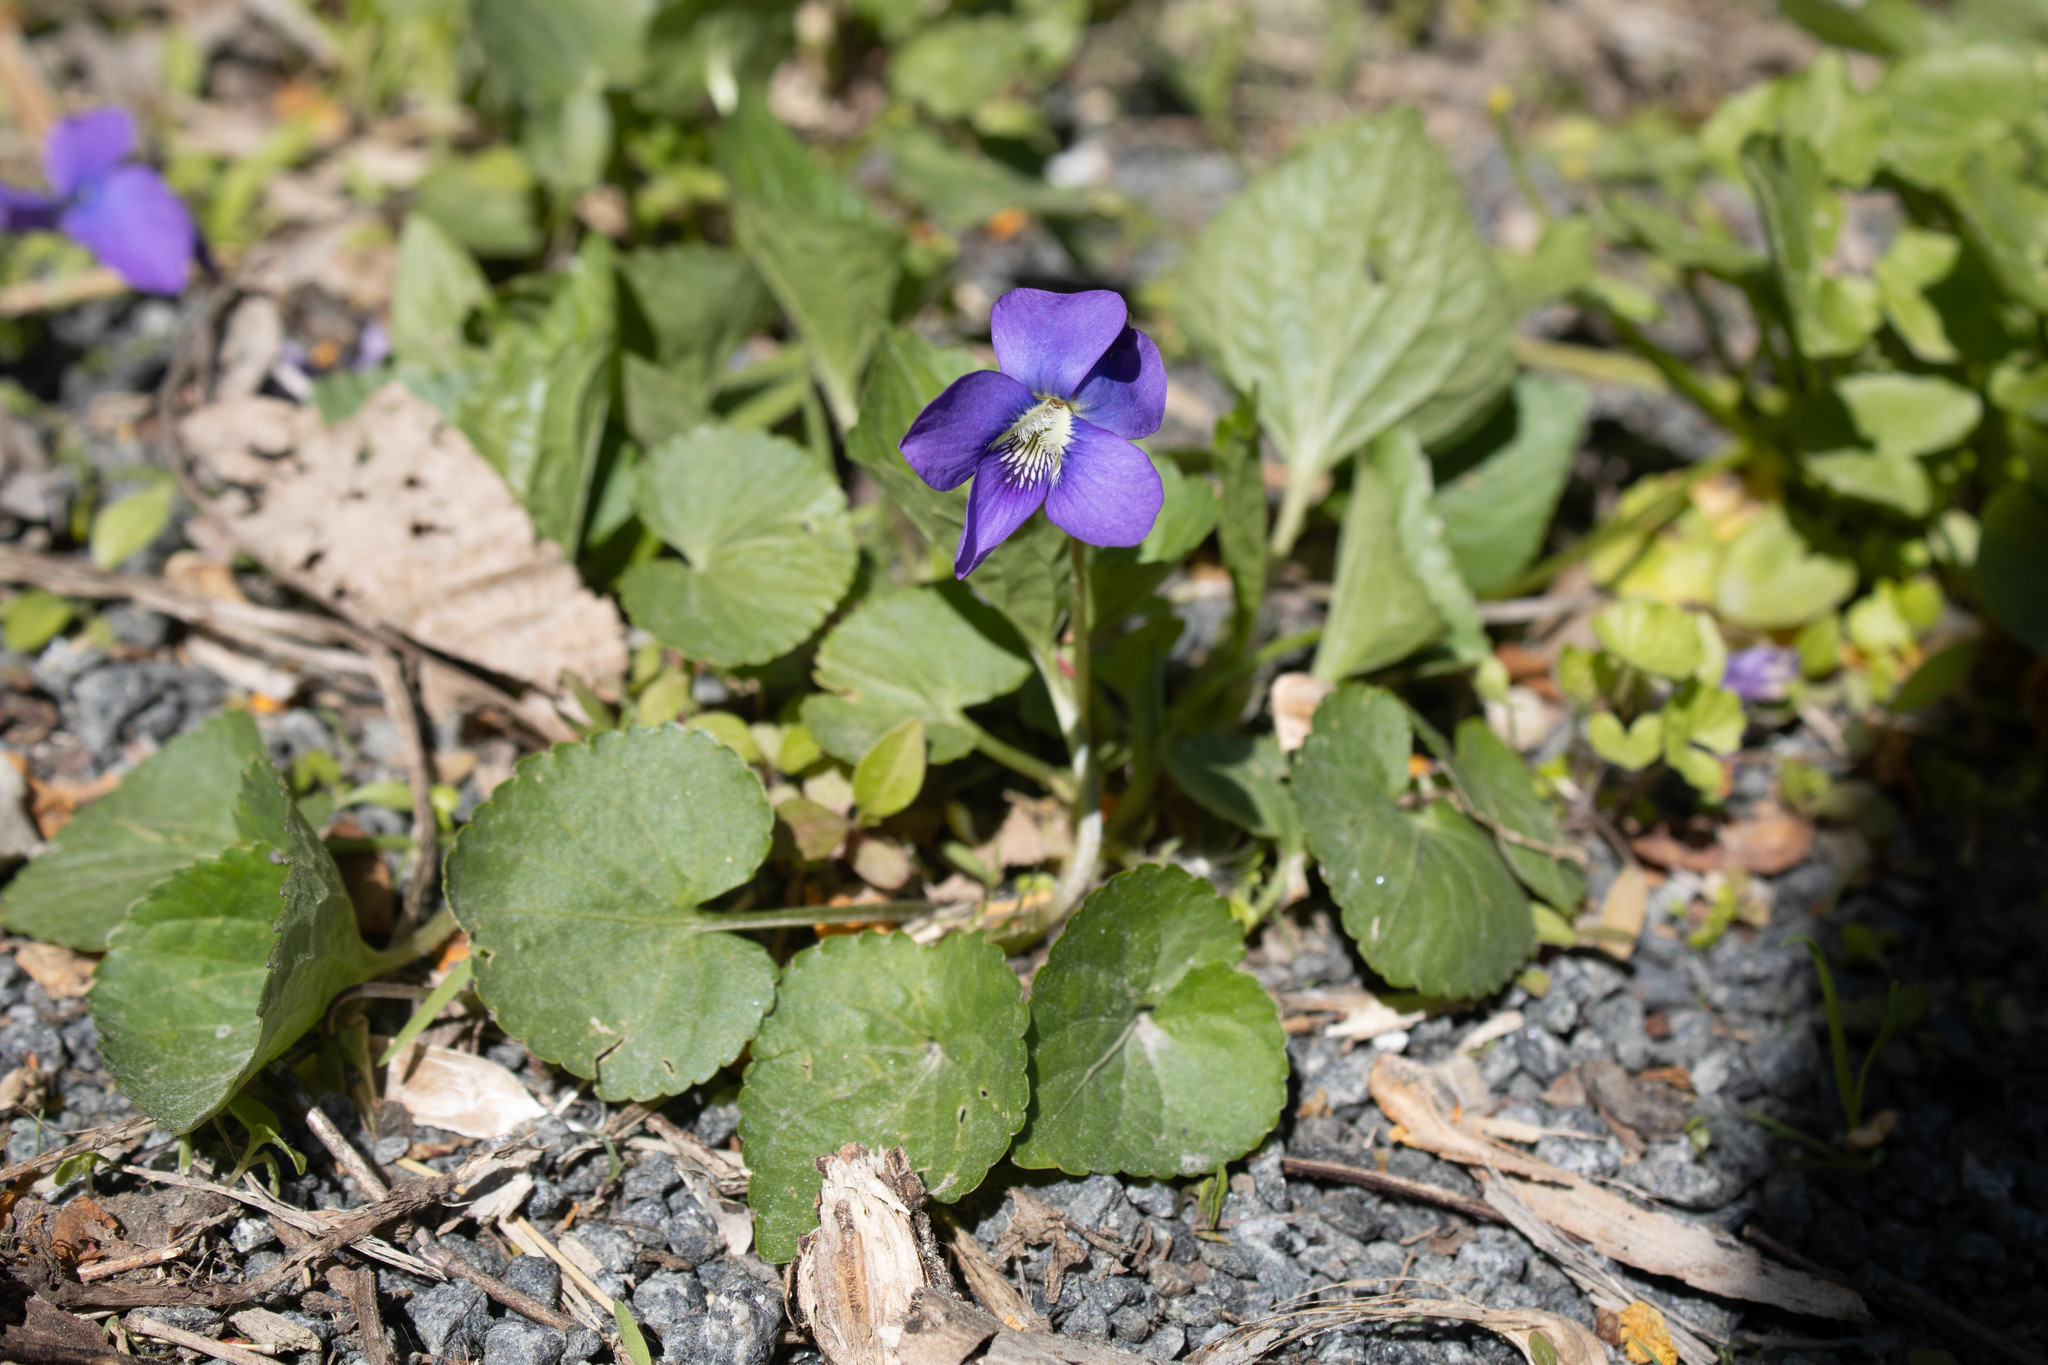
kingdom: Plantae
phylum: Tracheophyta
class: Magnoliopsida
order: Malpighiales
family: Violaceae
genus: Viola
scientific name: Viola sororia
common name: Dooryard violet
